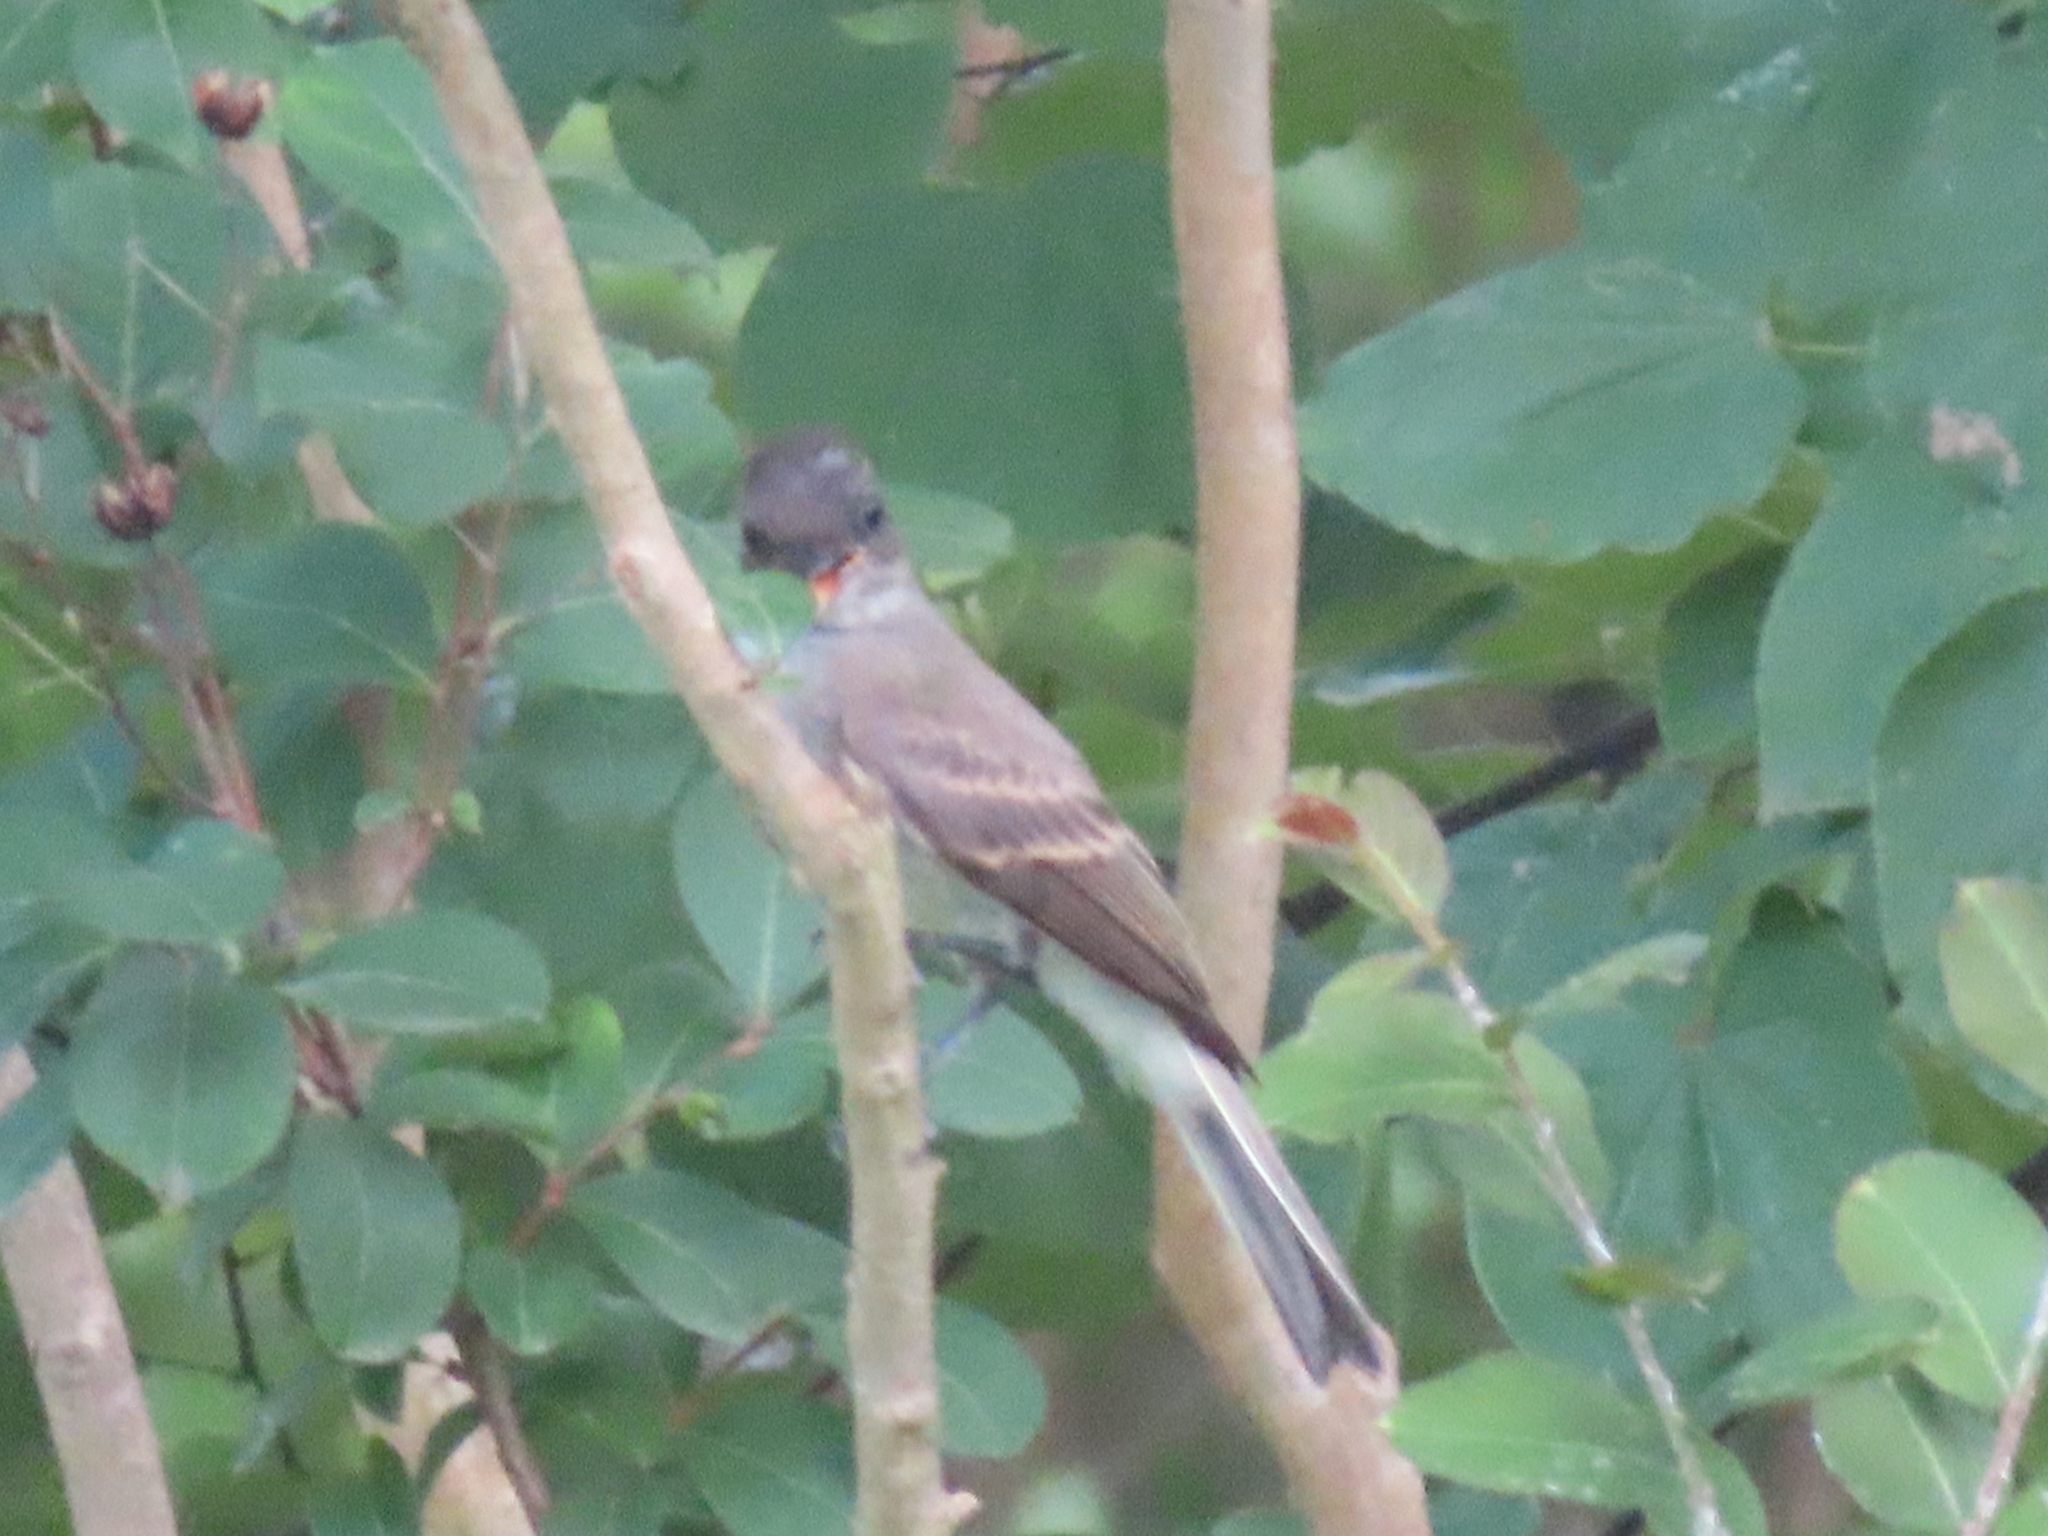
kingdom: Animalia
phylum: Chordata
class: Aves
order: Passeriformes
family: Tyrannidae
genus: Contopus
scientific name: Contopus virens
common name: Eastern wood-pewee
